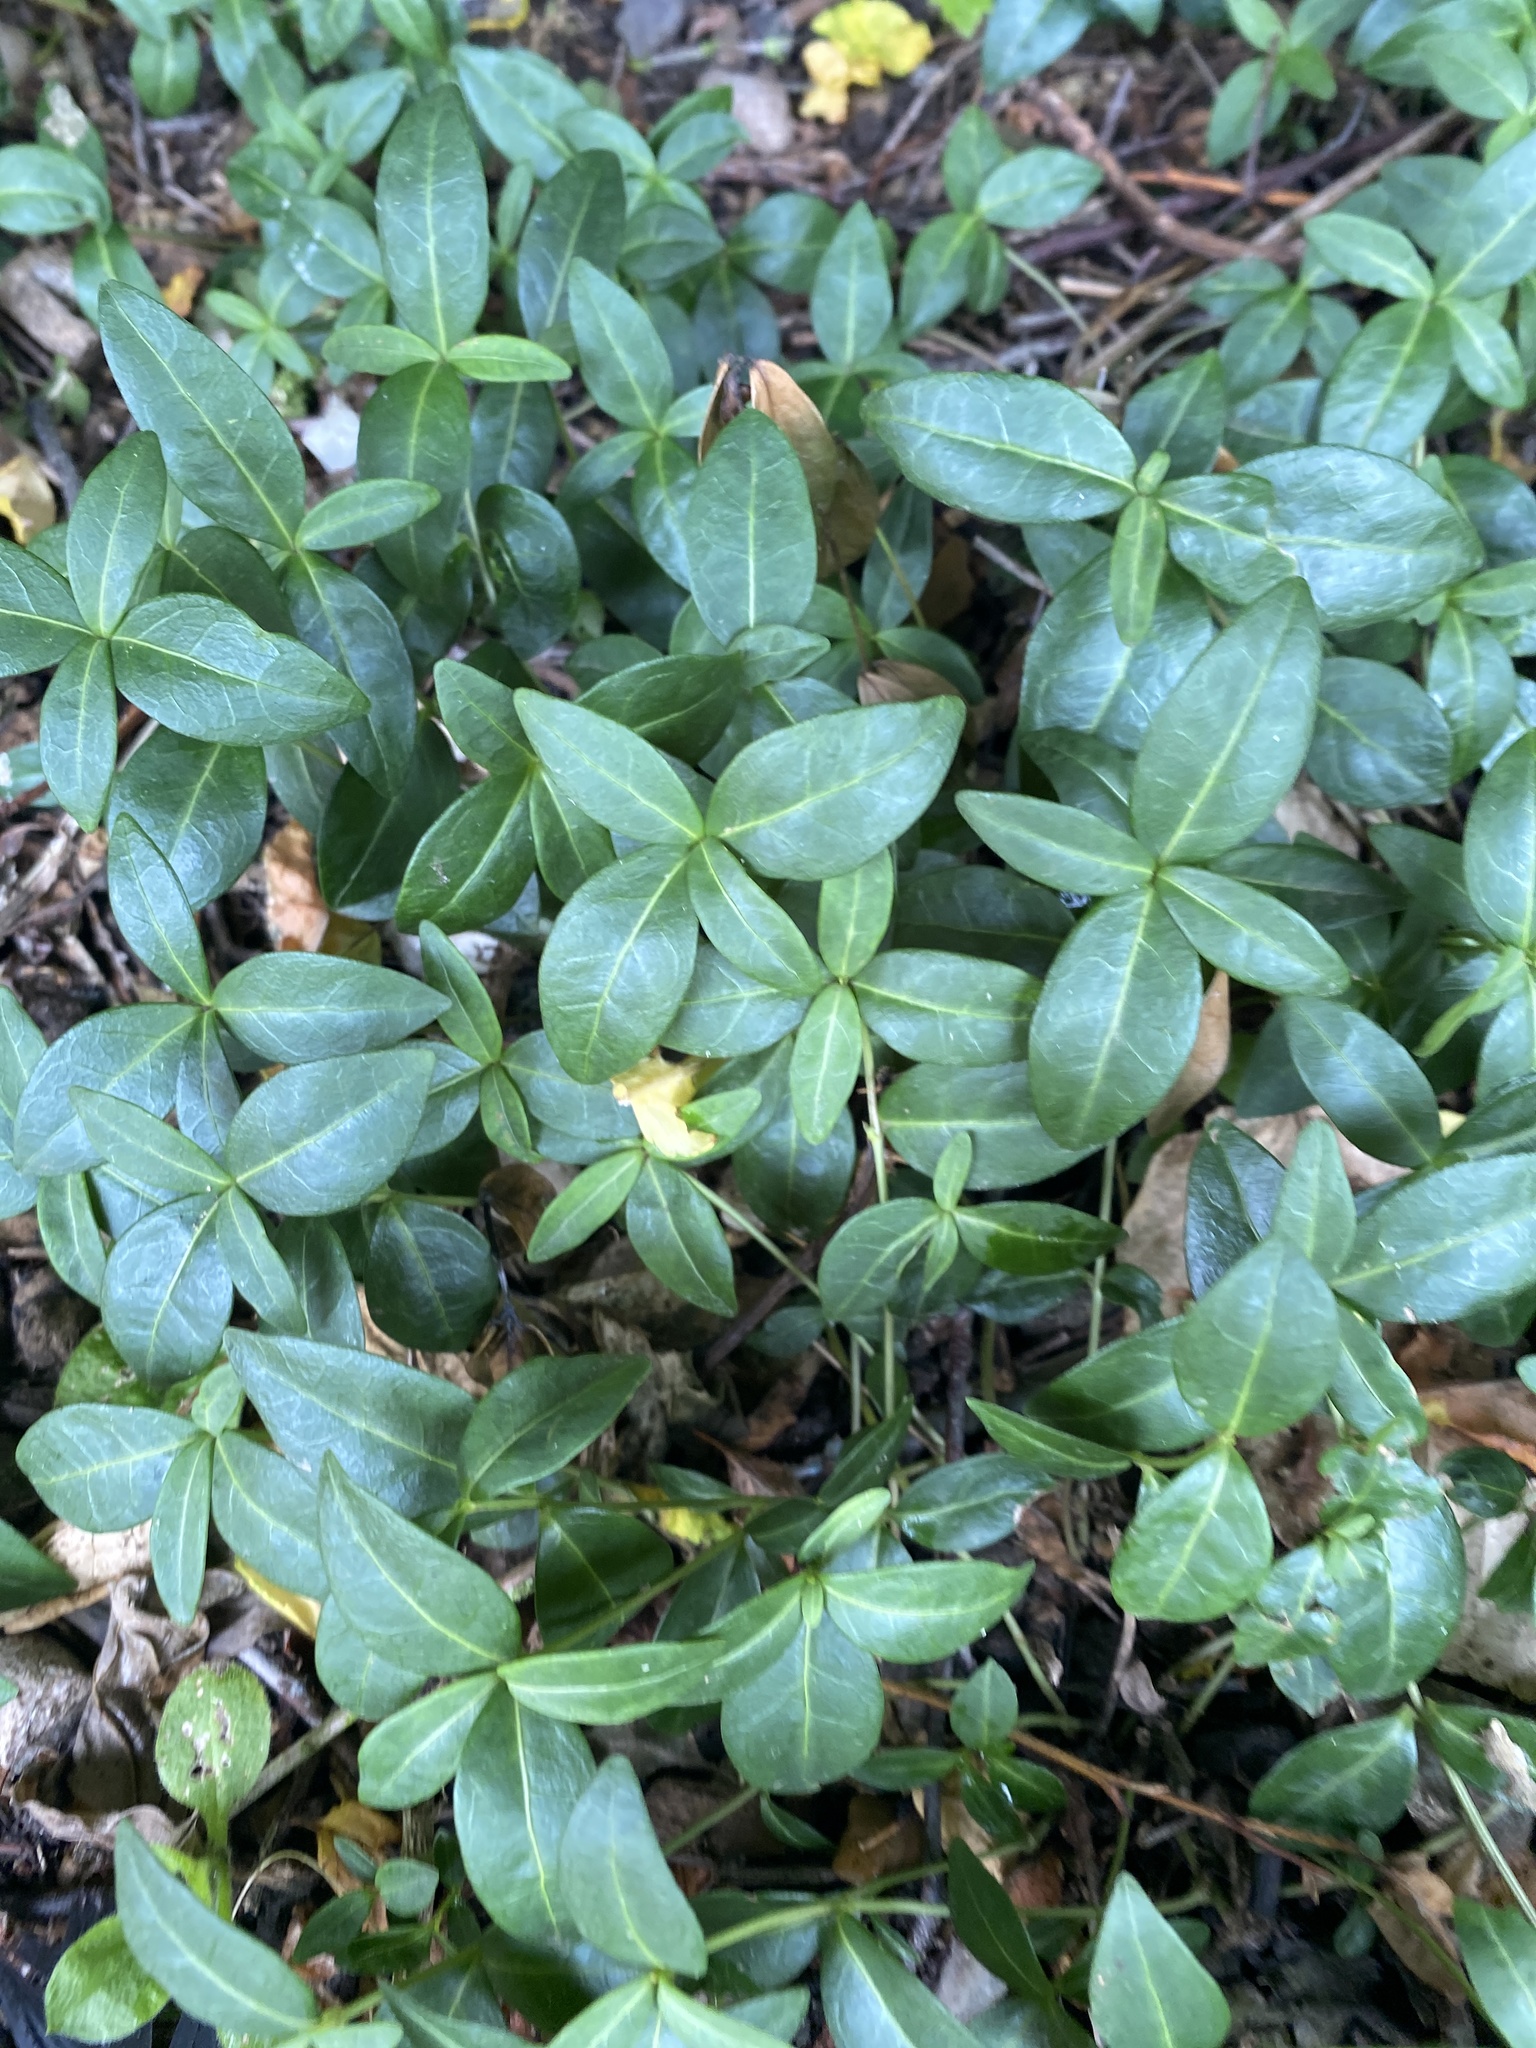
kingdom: Plantae
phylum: Tracheophyta
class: Magnoliopsida
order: Gentianales
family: Apocynaceae
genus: Vinca
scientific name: Vinca minor
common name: Lesser periwinkle
